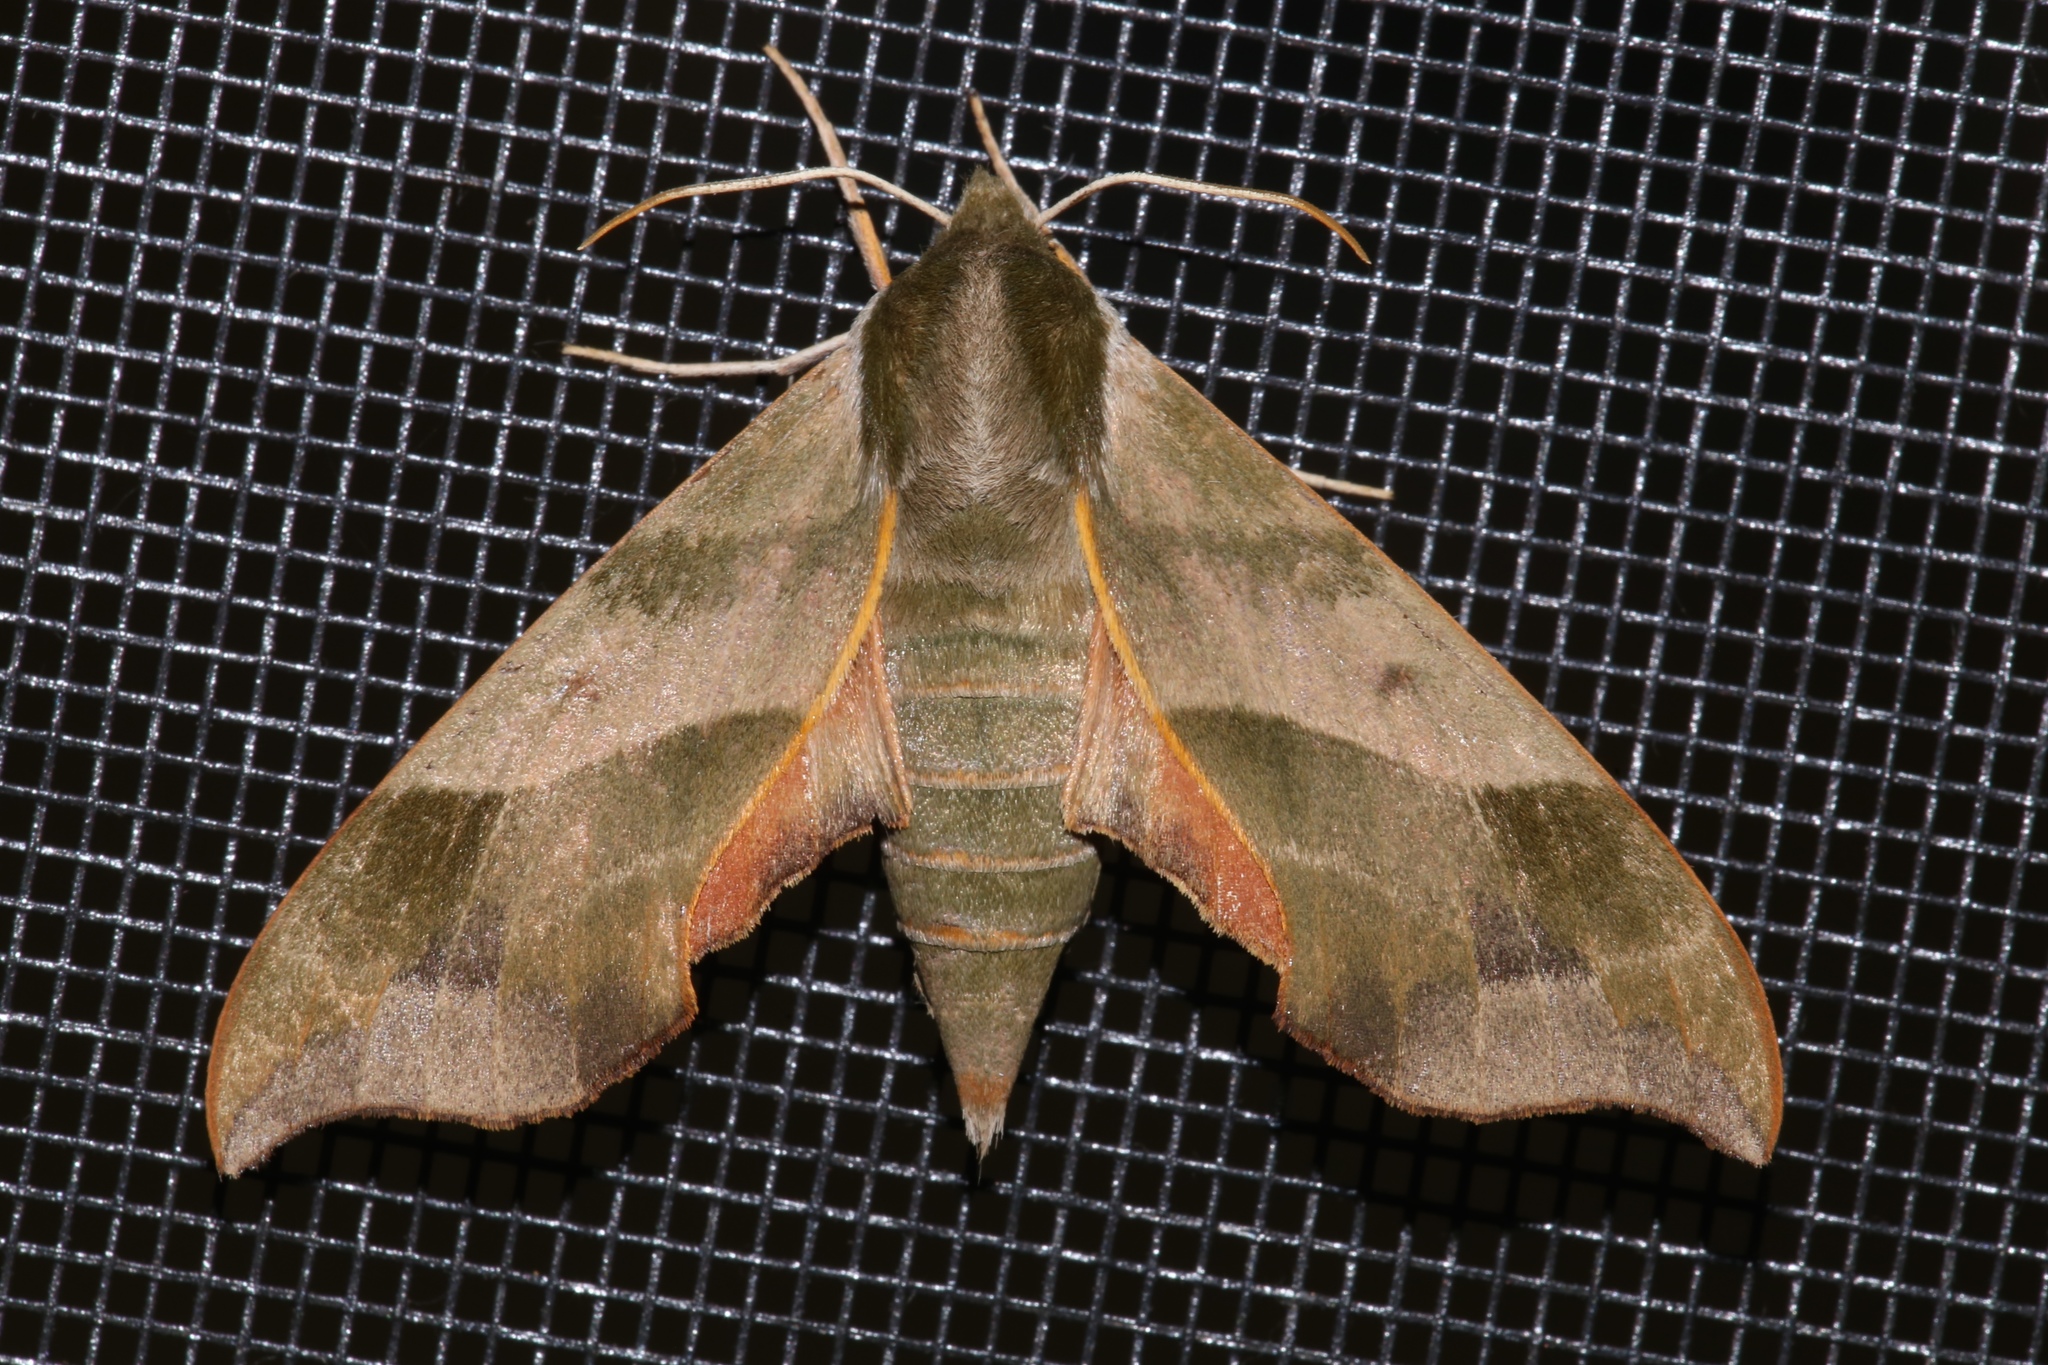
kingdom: Animalia
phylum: Arthropoda
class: Insecta
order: Lepidoptera
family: Sphingidae
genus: Darapsa
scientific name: Darapsa myron
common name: Hog sphinx
